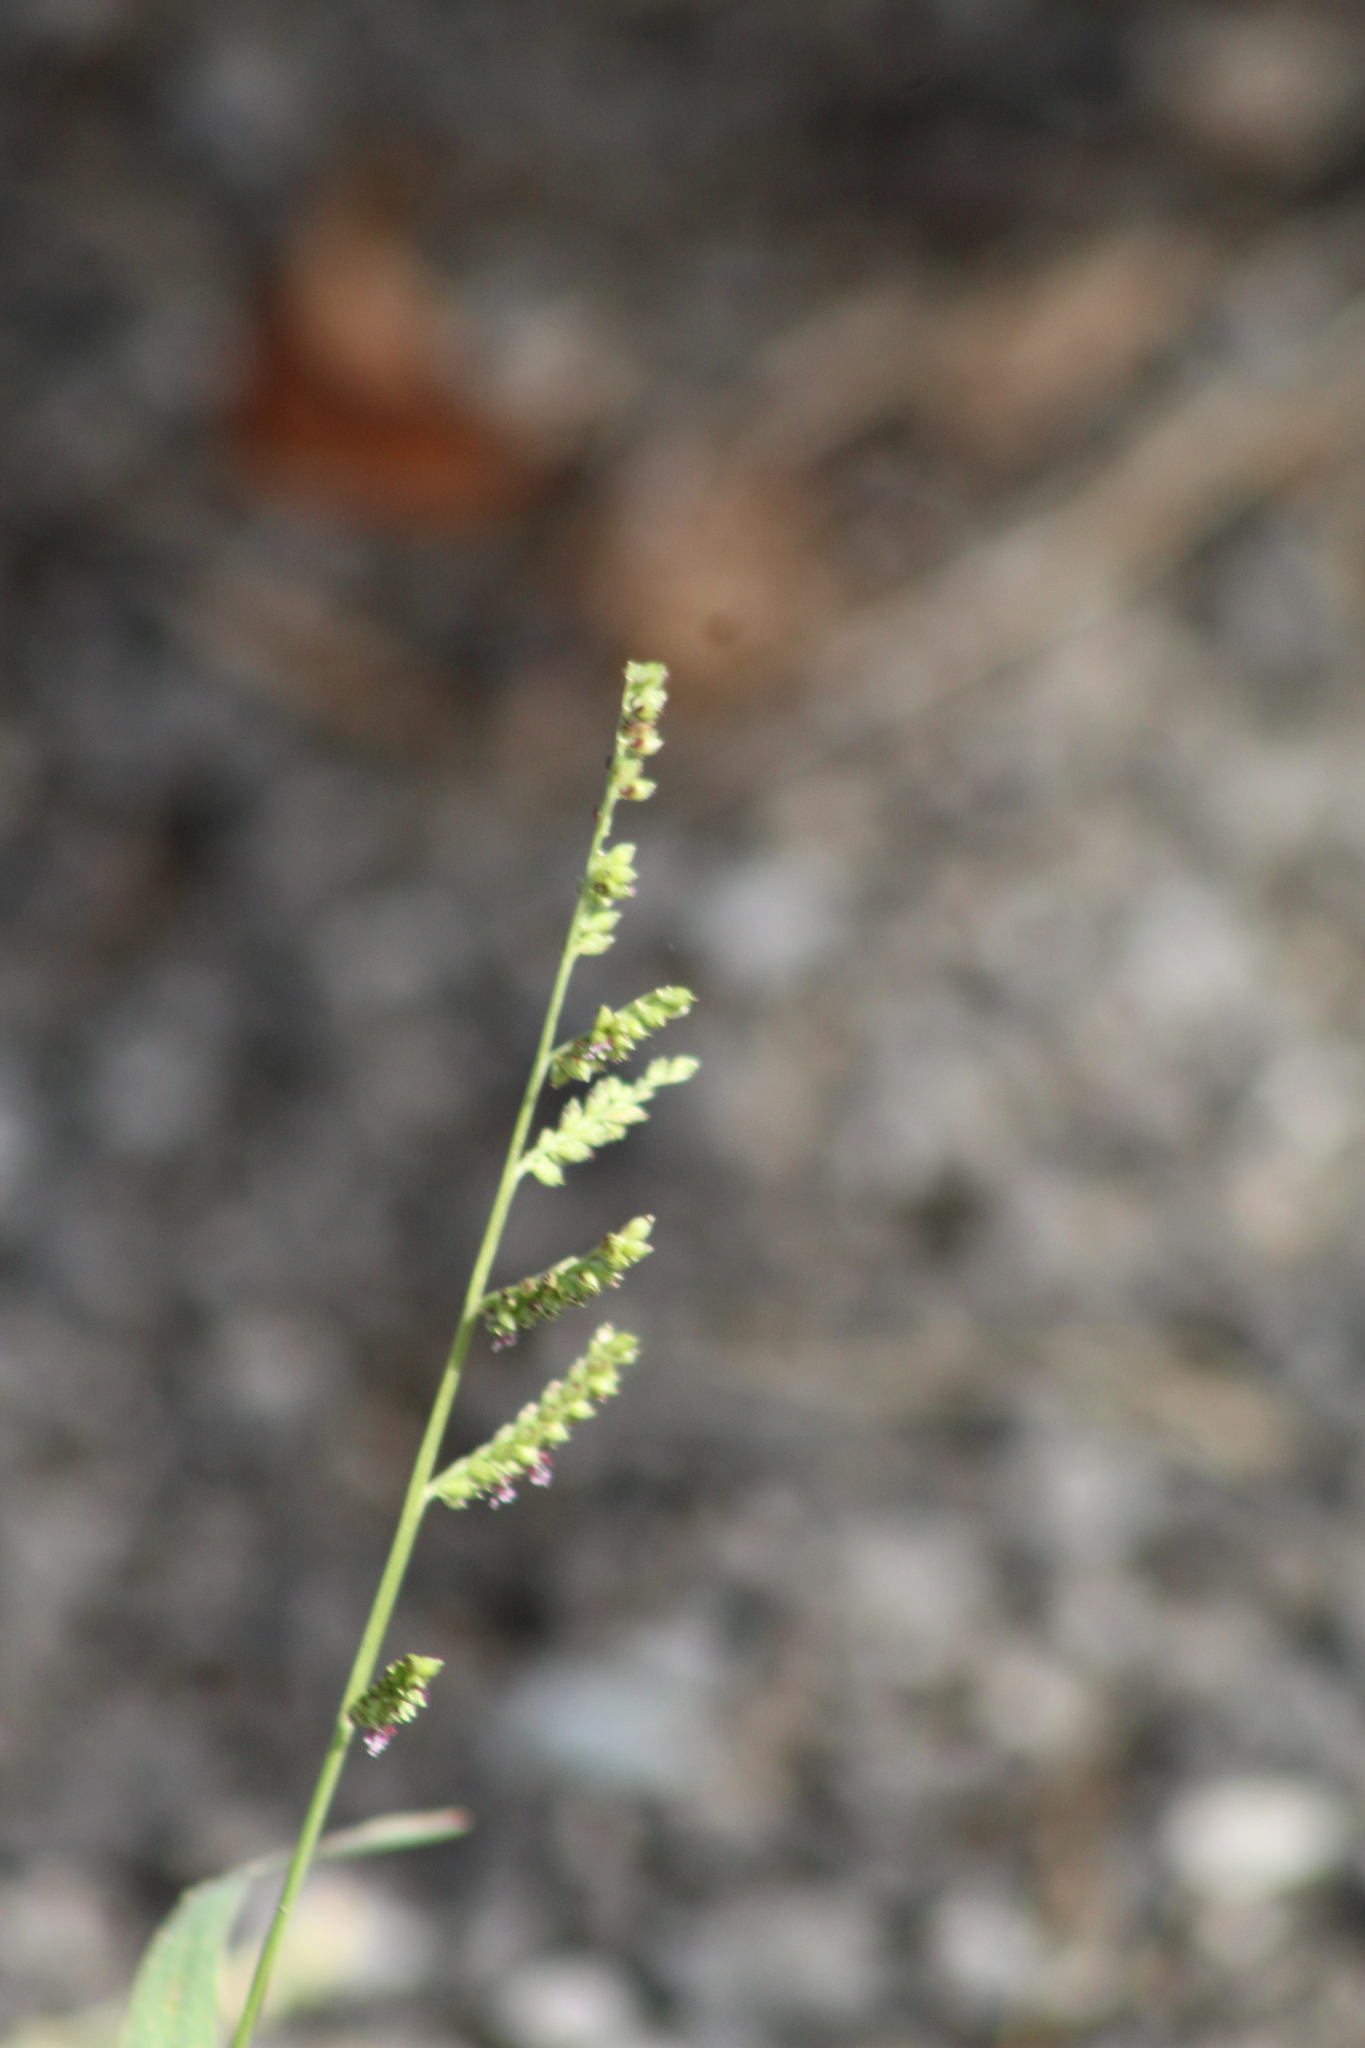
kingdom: Plantae
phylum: Tracheophyta
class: Liliopsida
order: Poales
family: Poaceae
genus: Echinochloa
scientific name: Echinochloa colonum
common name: Jungle rice
